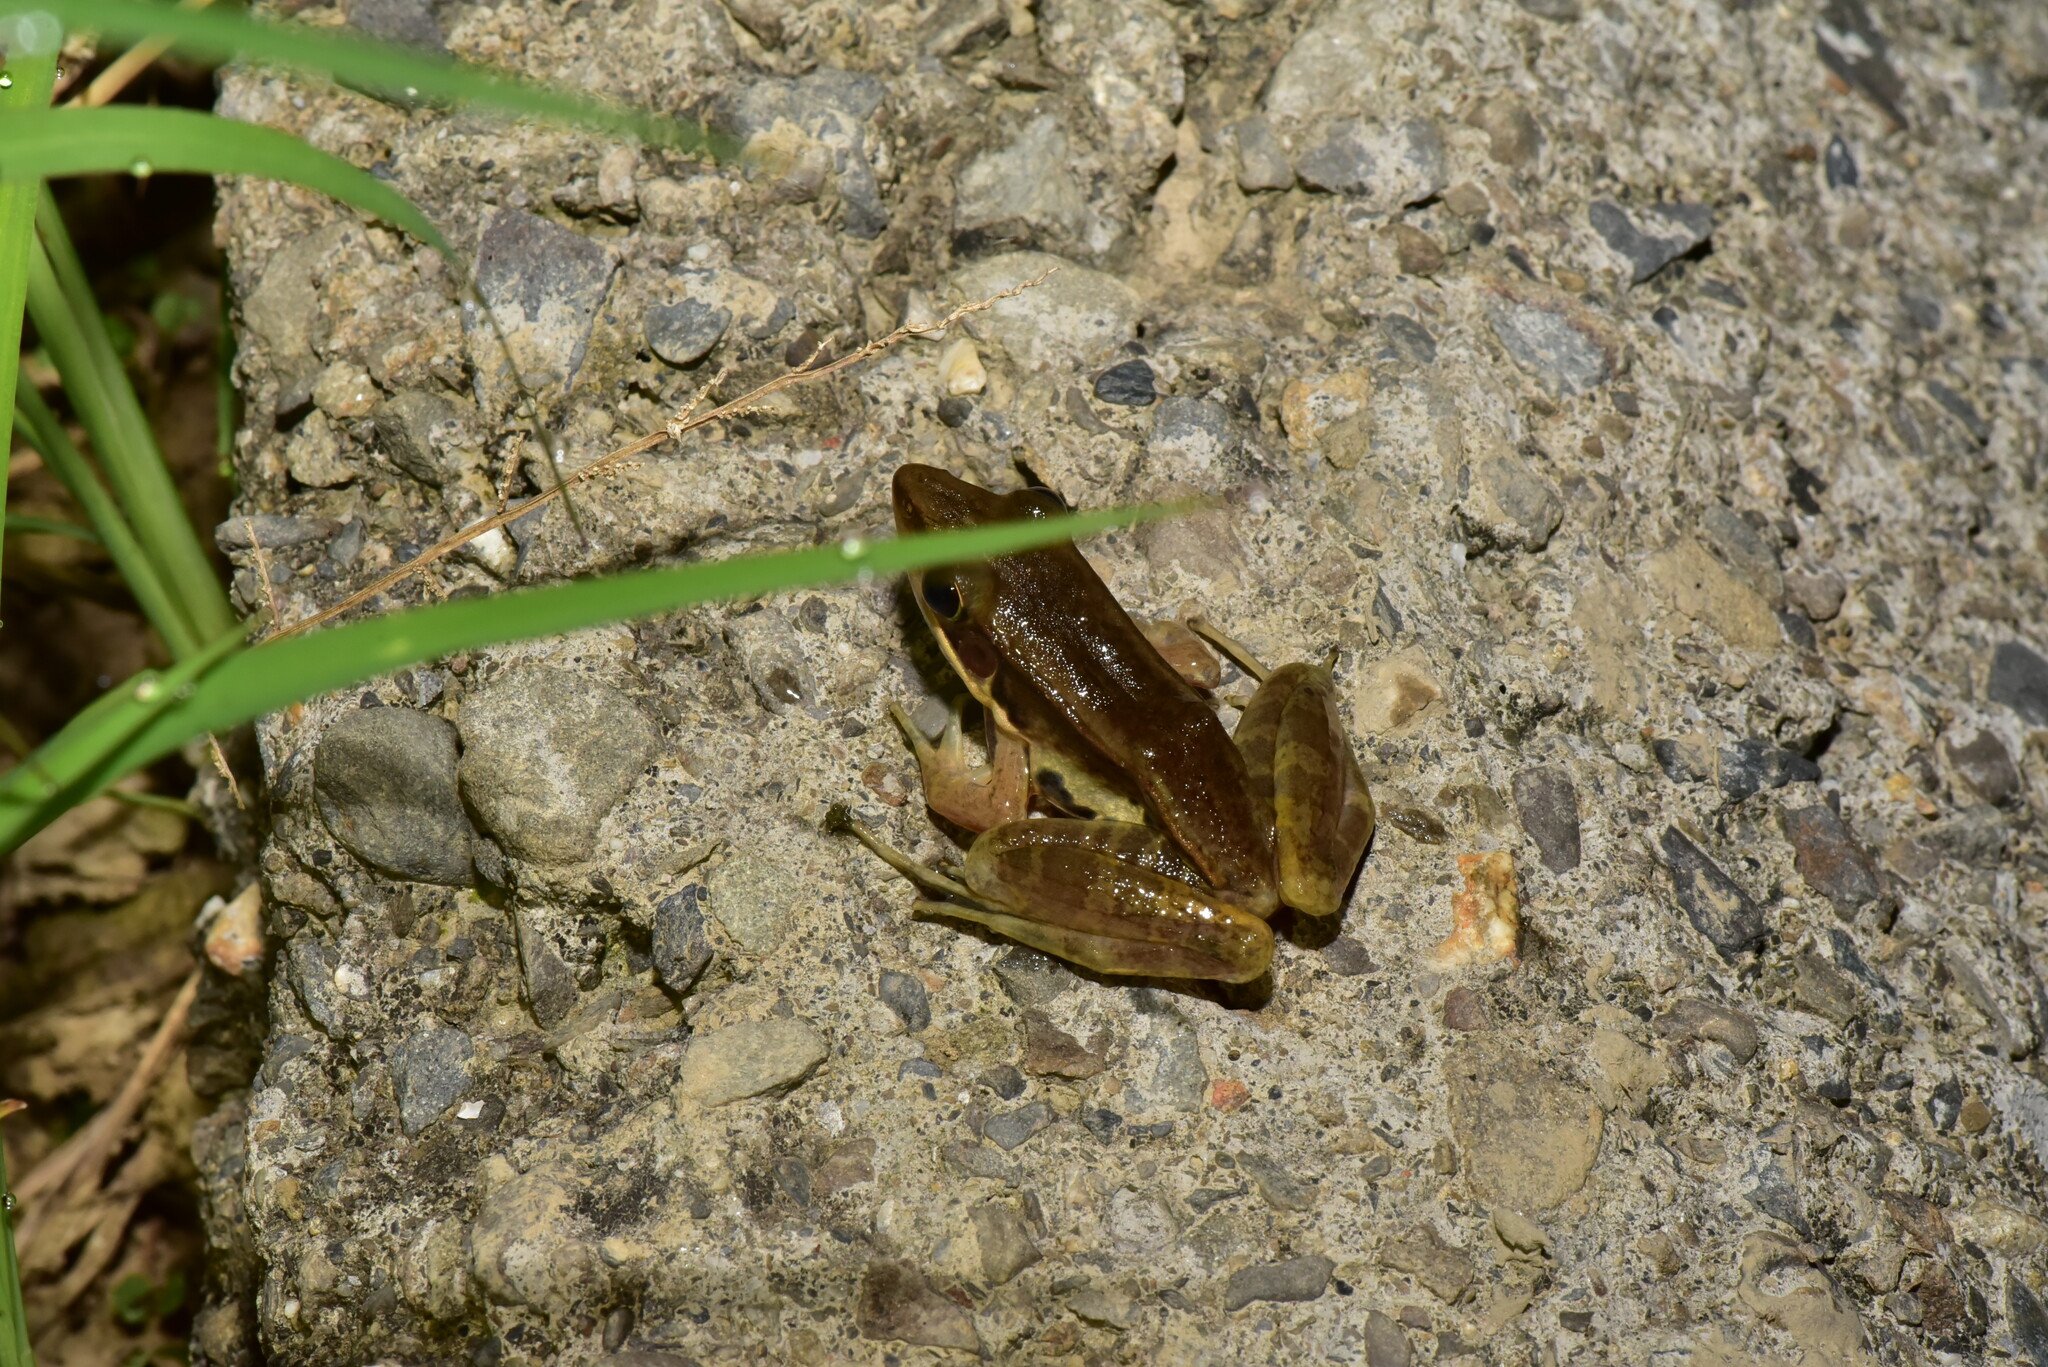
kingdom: Animalia
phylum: Chordata
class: Amphibia
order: Anura
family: Ranidae
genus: Sylvirana
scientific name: Sylvirana guentheri
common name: Guenther's amoy frog
